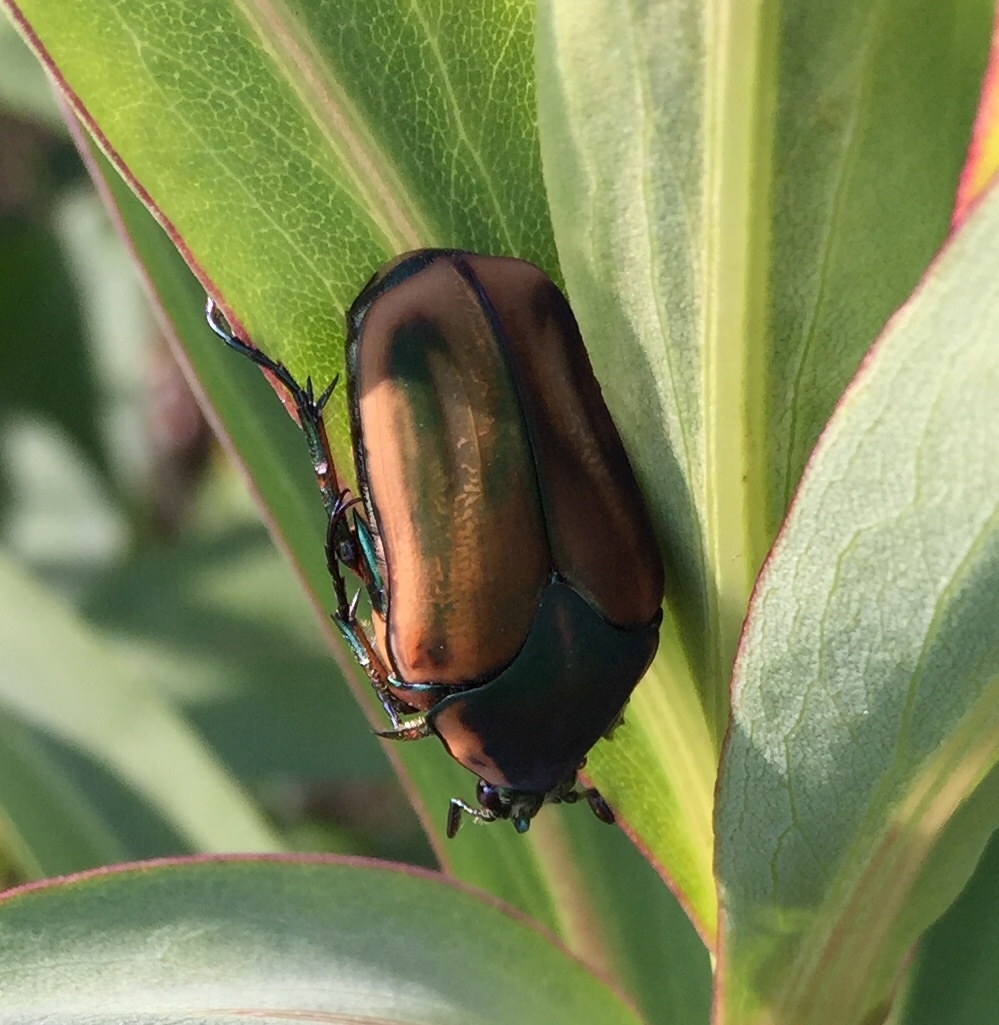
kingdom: Animalia
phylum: Arthropoda
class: Insecta
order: Coleoptera
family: Scarabaeidae
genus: Cotinis
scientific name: Cotinis nitida
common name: Common green june beetle
